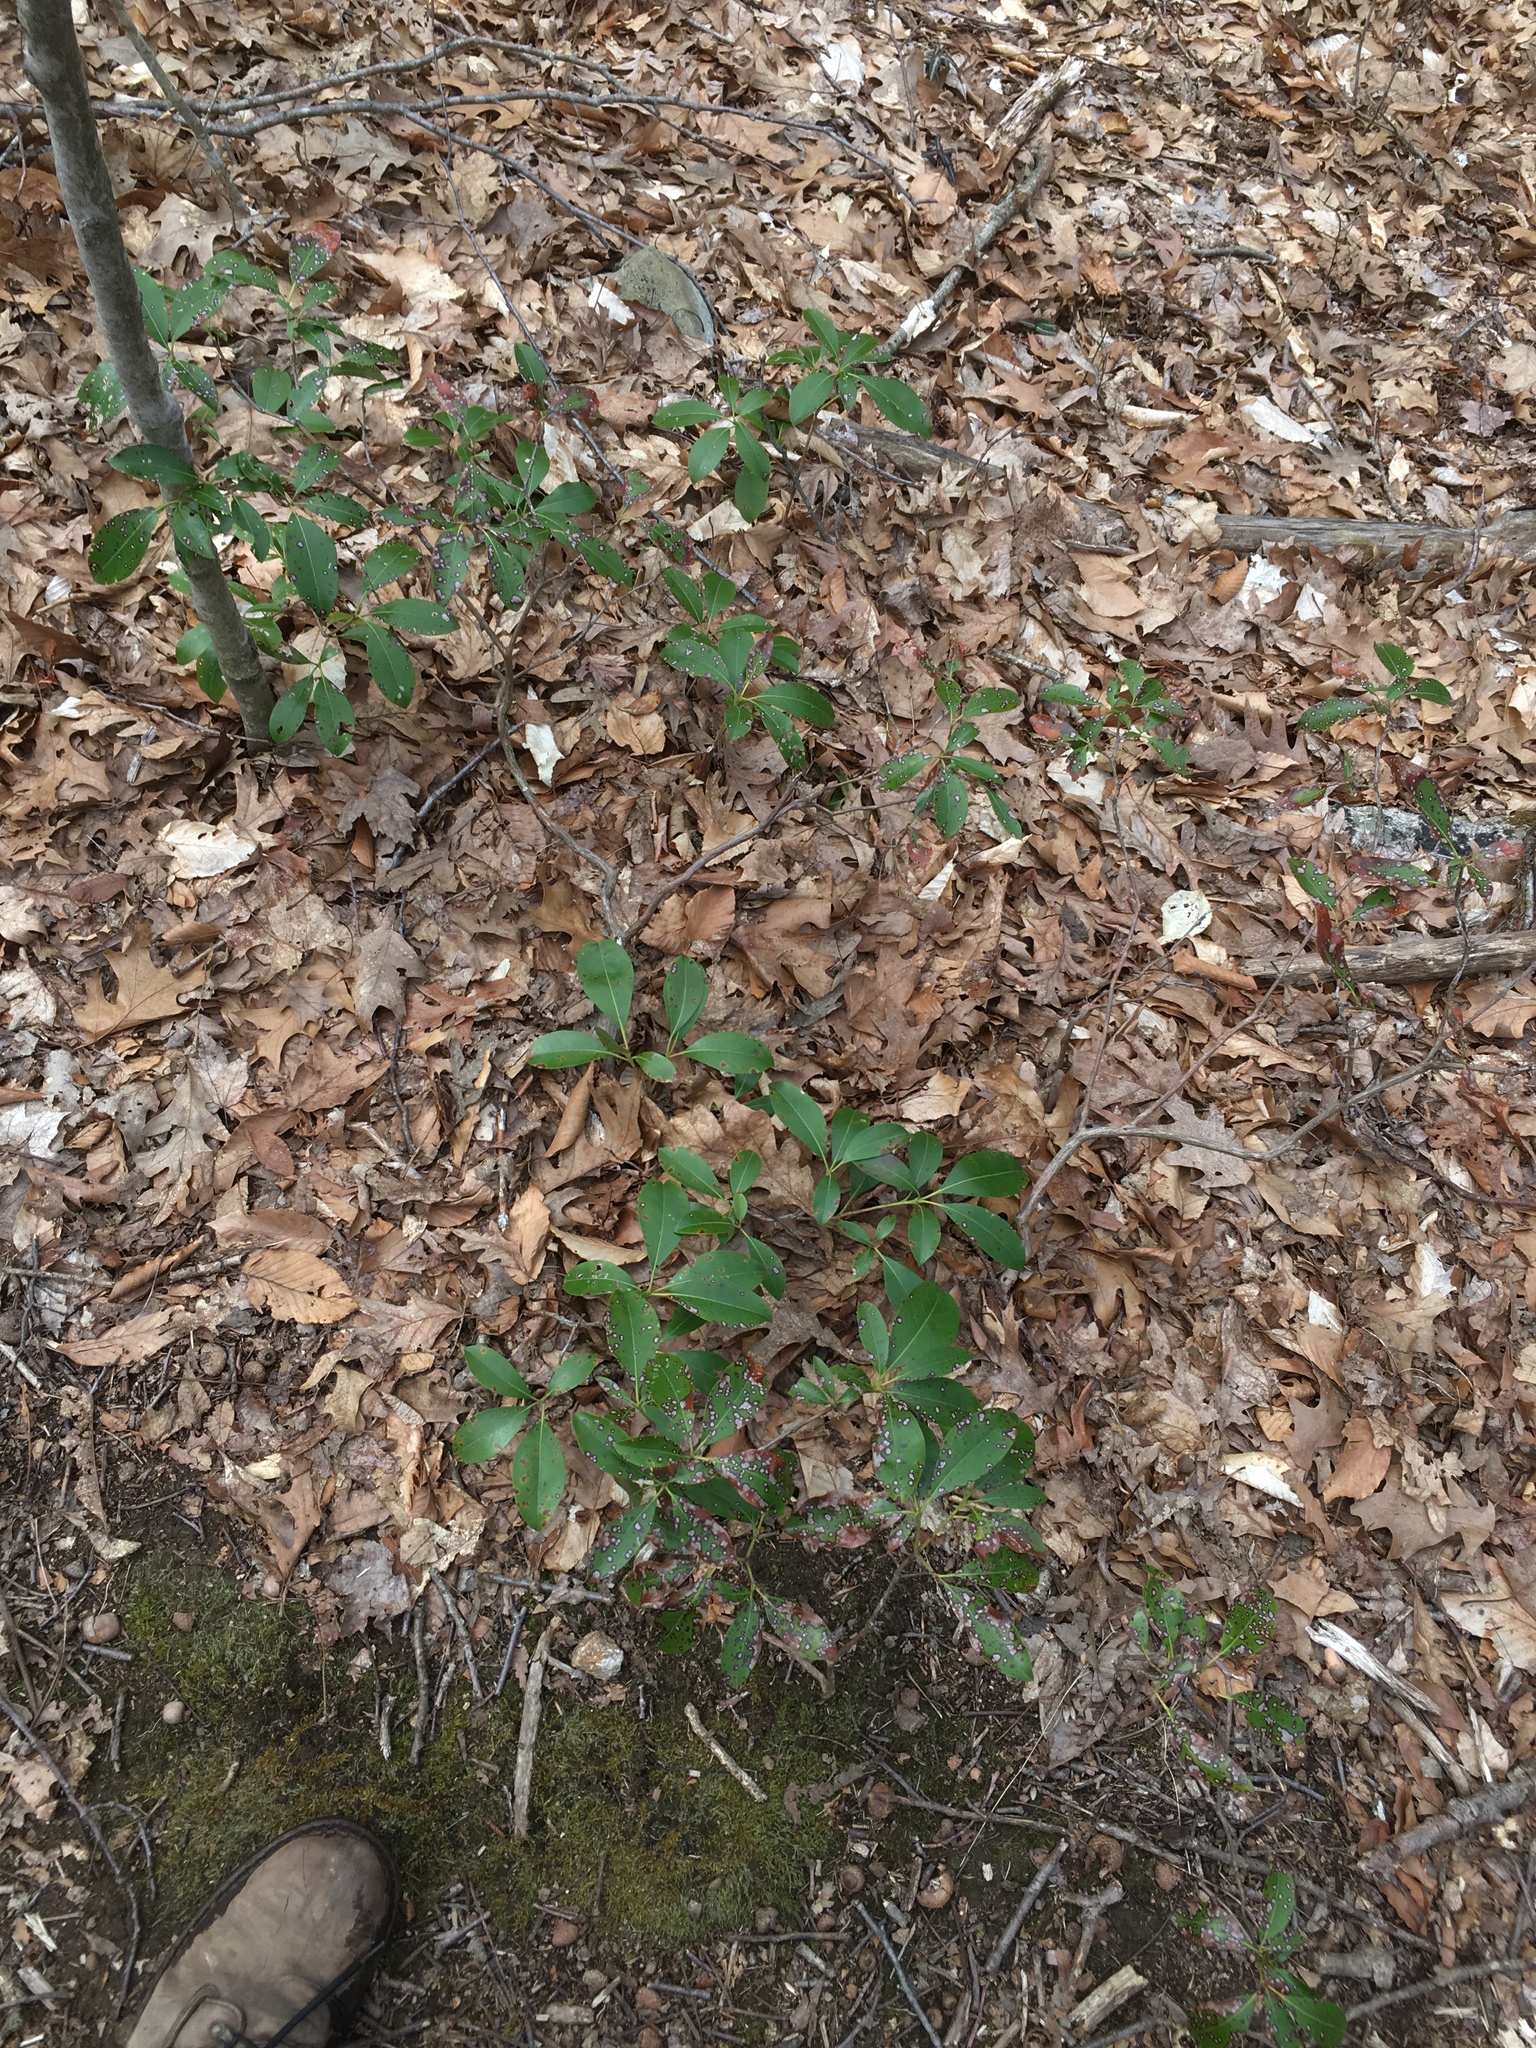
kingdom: Plantae
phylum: Tracheophyta
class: Magnoliopsida
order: Ericales
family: Ericaceae
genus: Kalmia
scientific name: Kalmia latifolia
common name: Mountain-laurel
